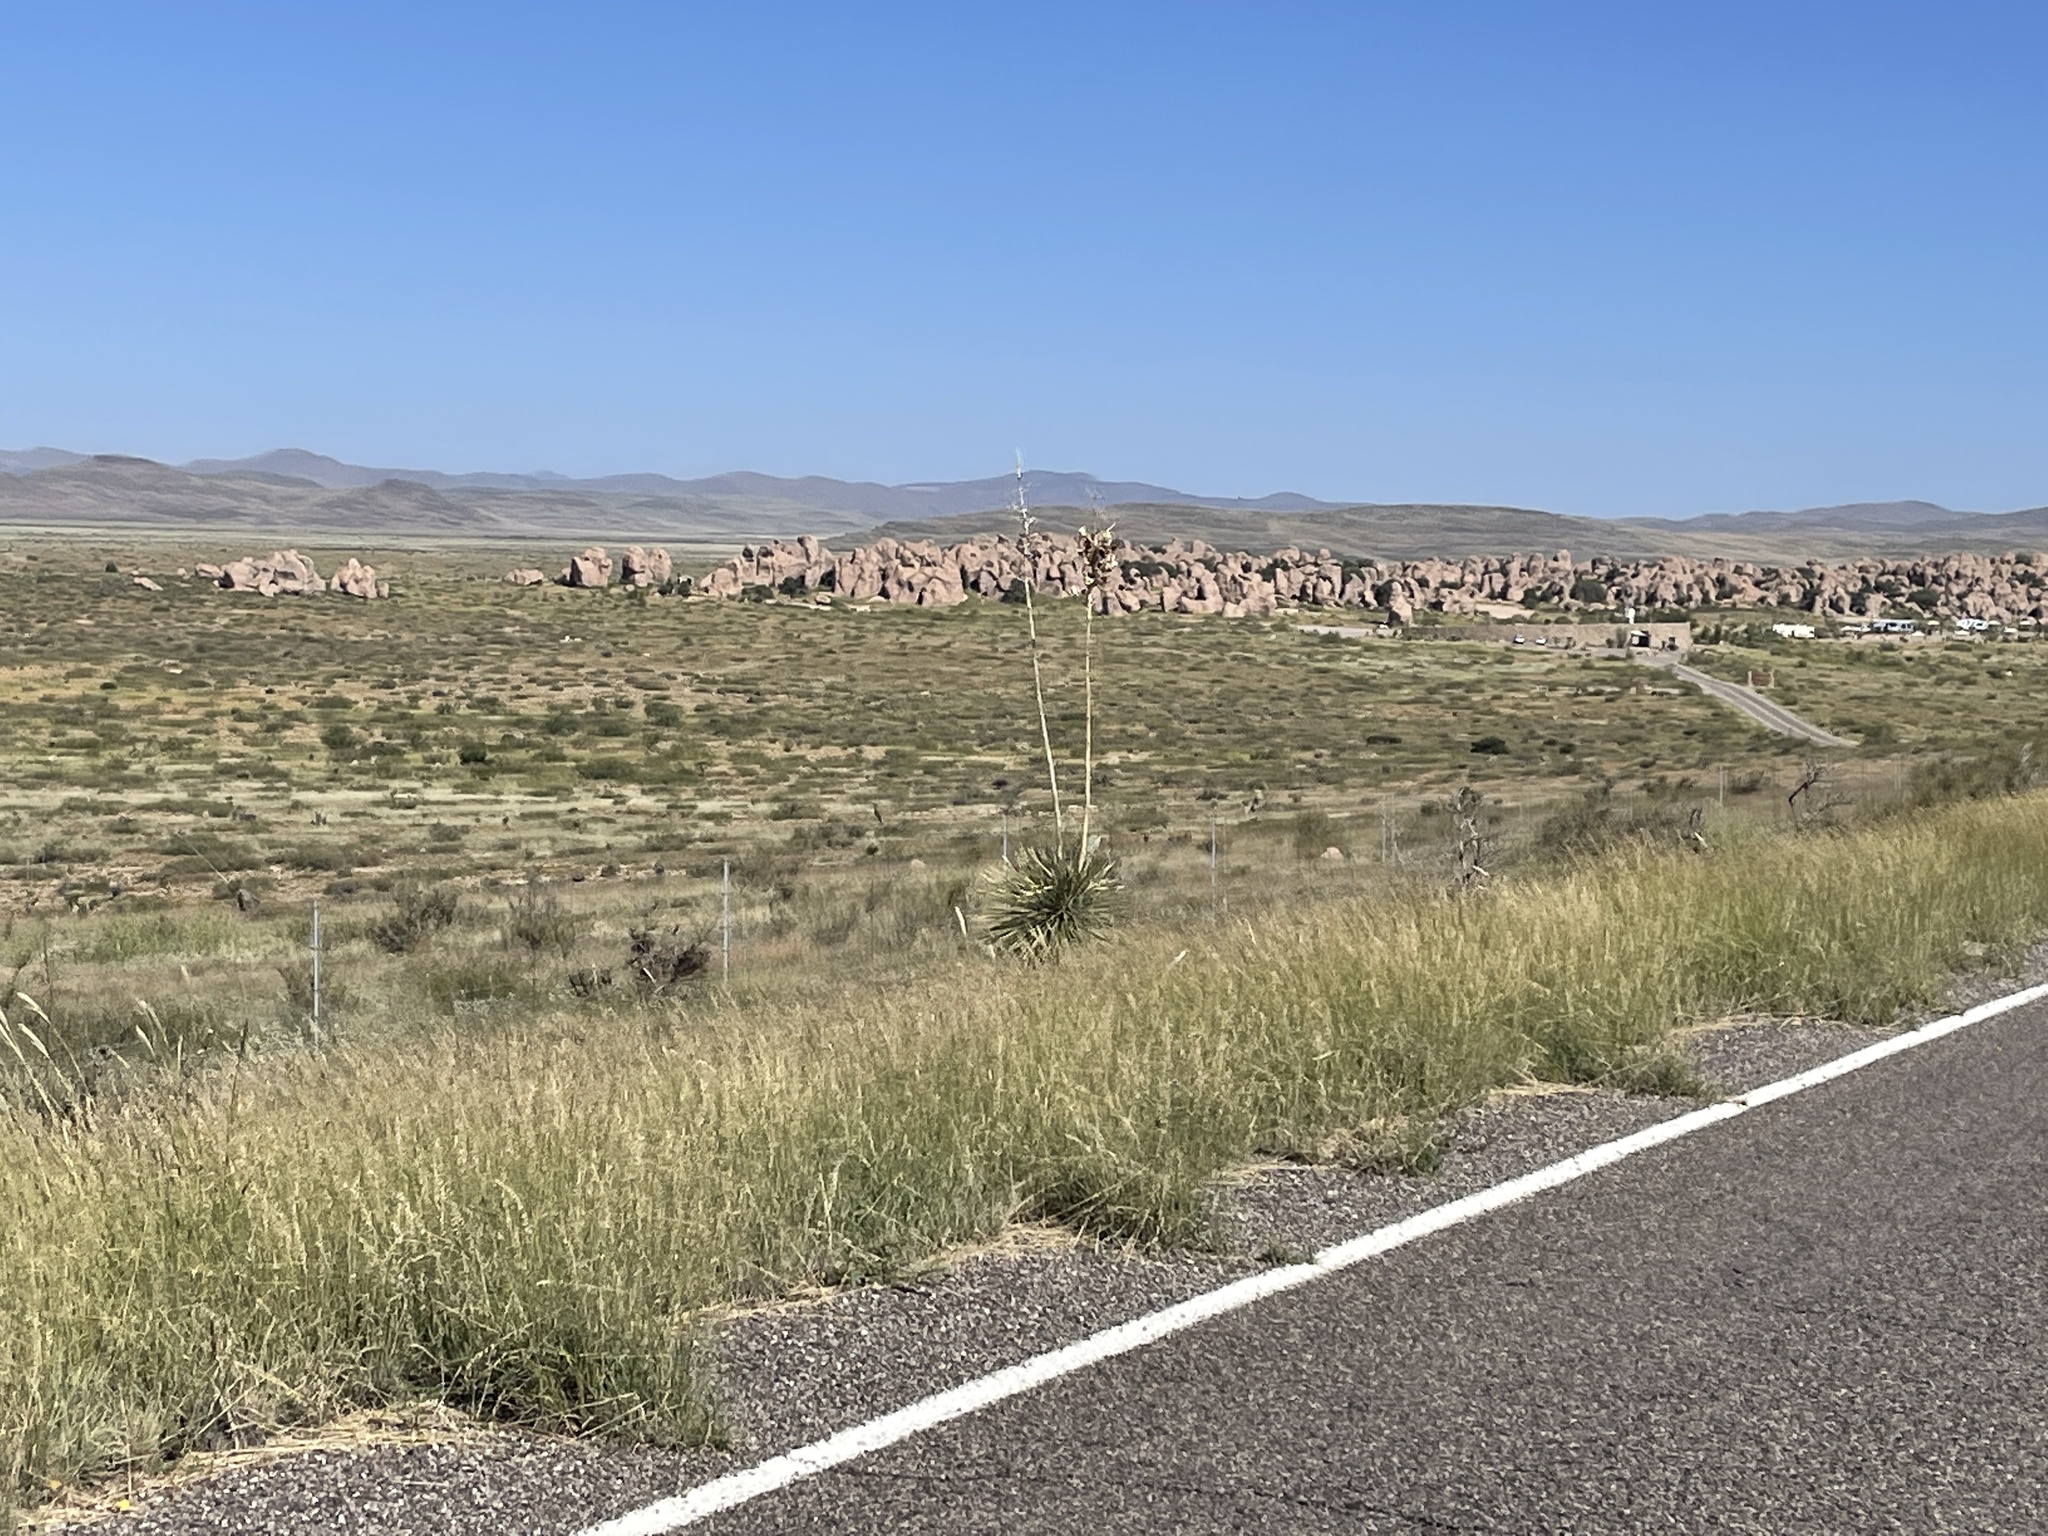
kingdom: Plantae
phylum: Tracheophyta
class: Liliopsida
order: Asparagales
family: Asparagaceae
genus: Yucca
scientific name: Yucca elata
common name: Palmella
